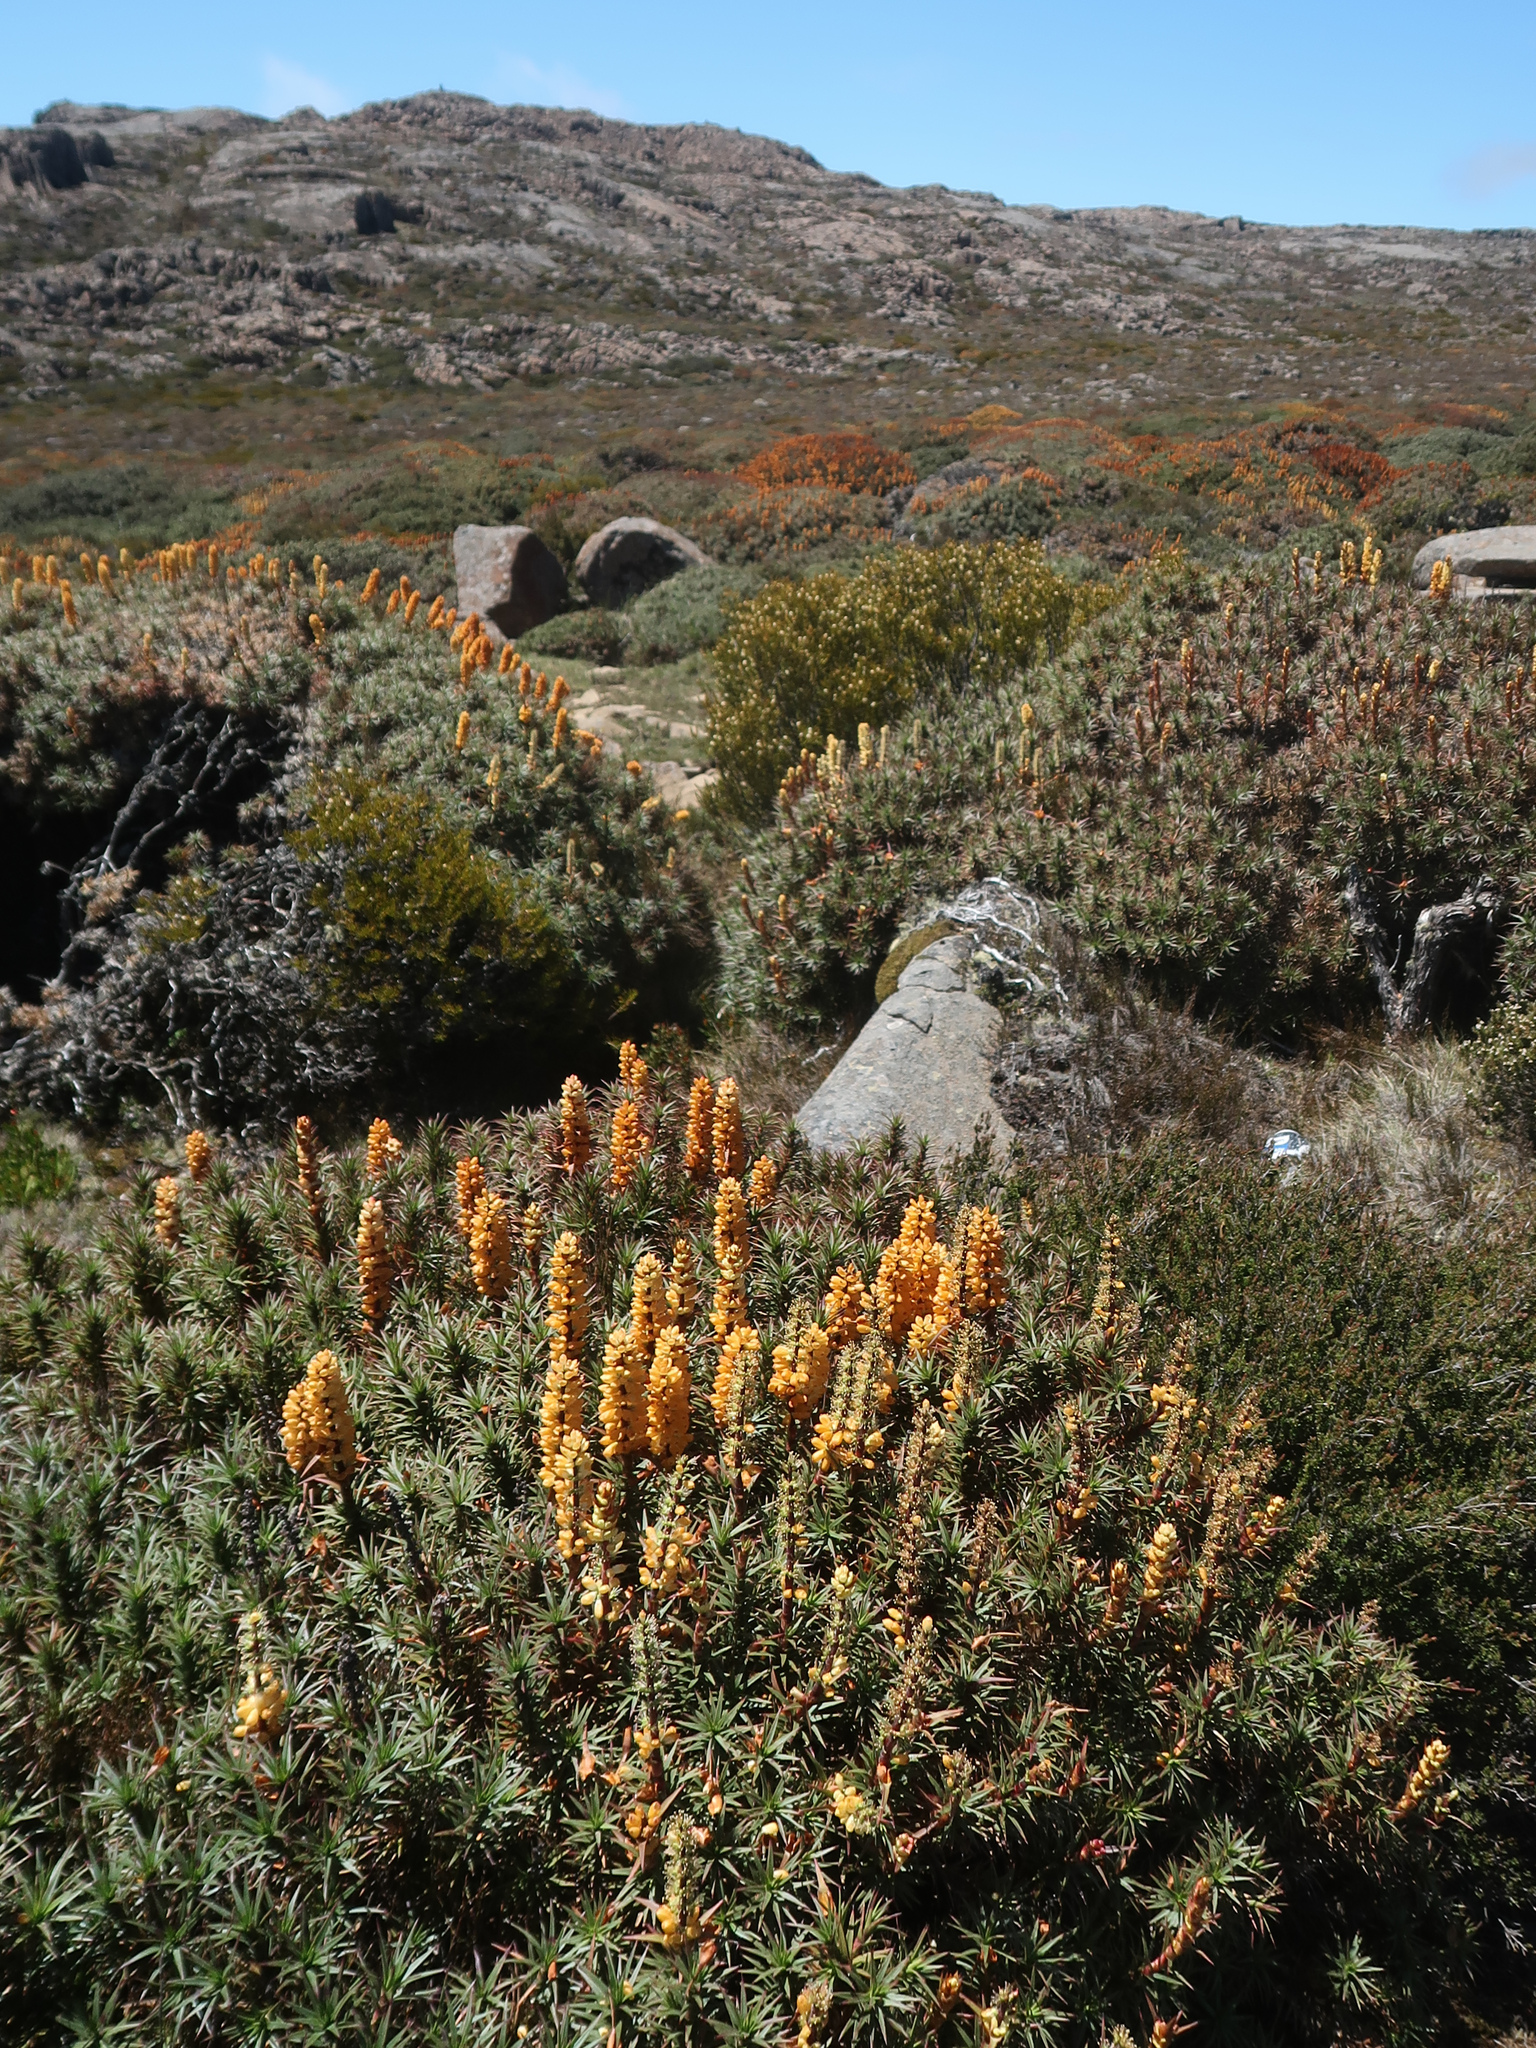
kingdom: Plantae
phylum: Tracheophyta
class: Magnoliopsida
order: Ericales
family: Ericaceae
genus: Dracophyllum
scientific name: Dracophyllum persistentifolium
